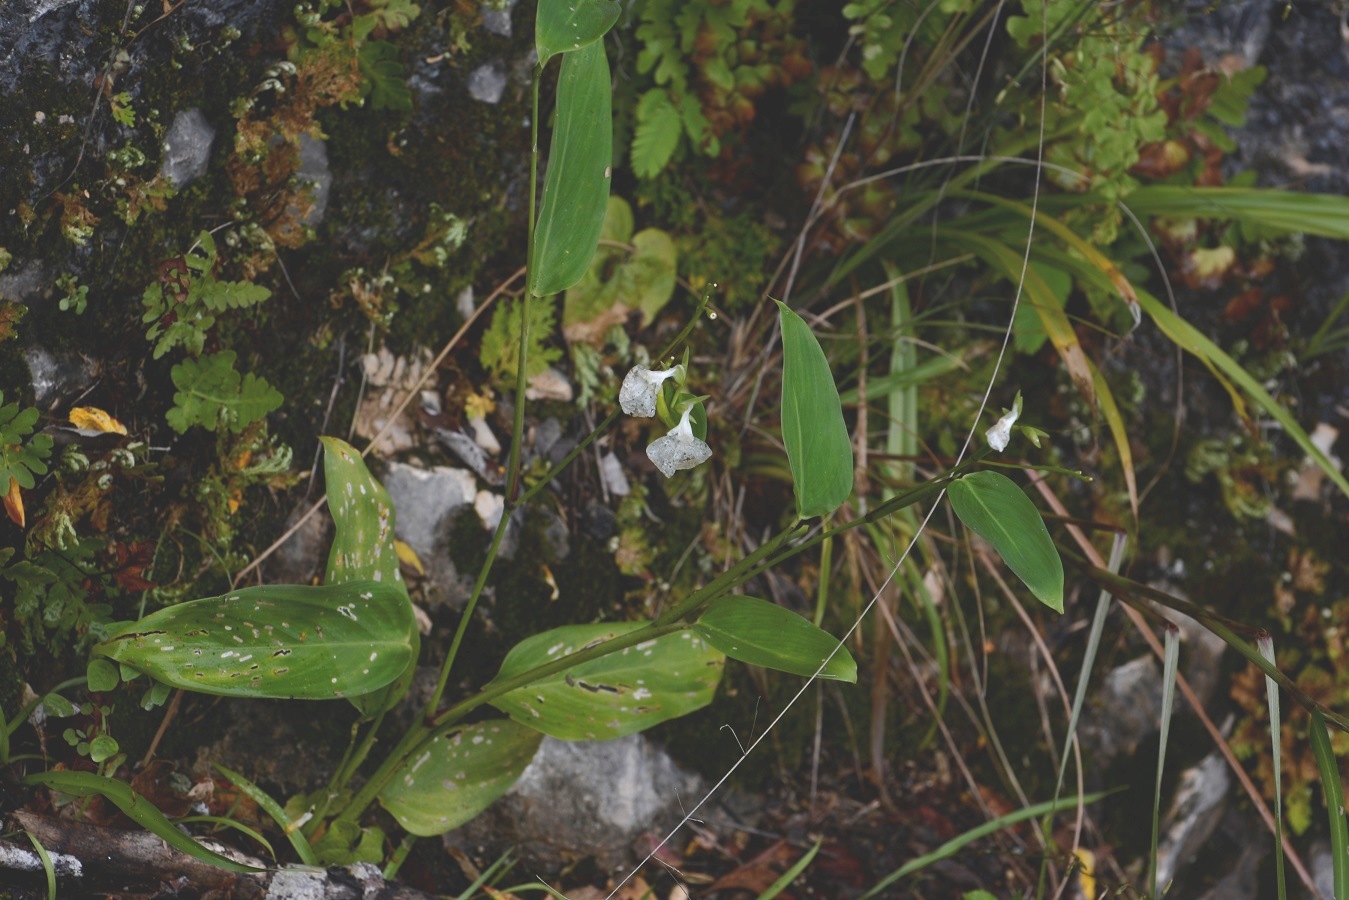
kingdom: Plantae
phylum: Tracheophyta
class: Liliopsida
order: Zingiberales
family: Marantaceae
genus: Maranta
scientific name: Maranta arundinacea
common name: Arrowroot
